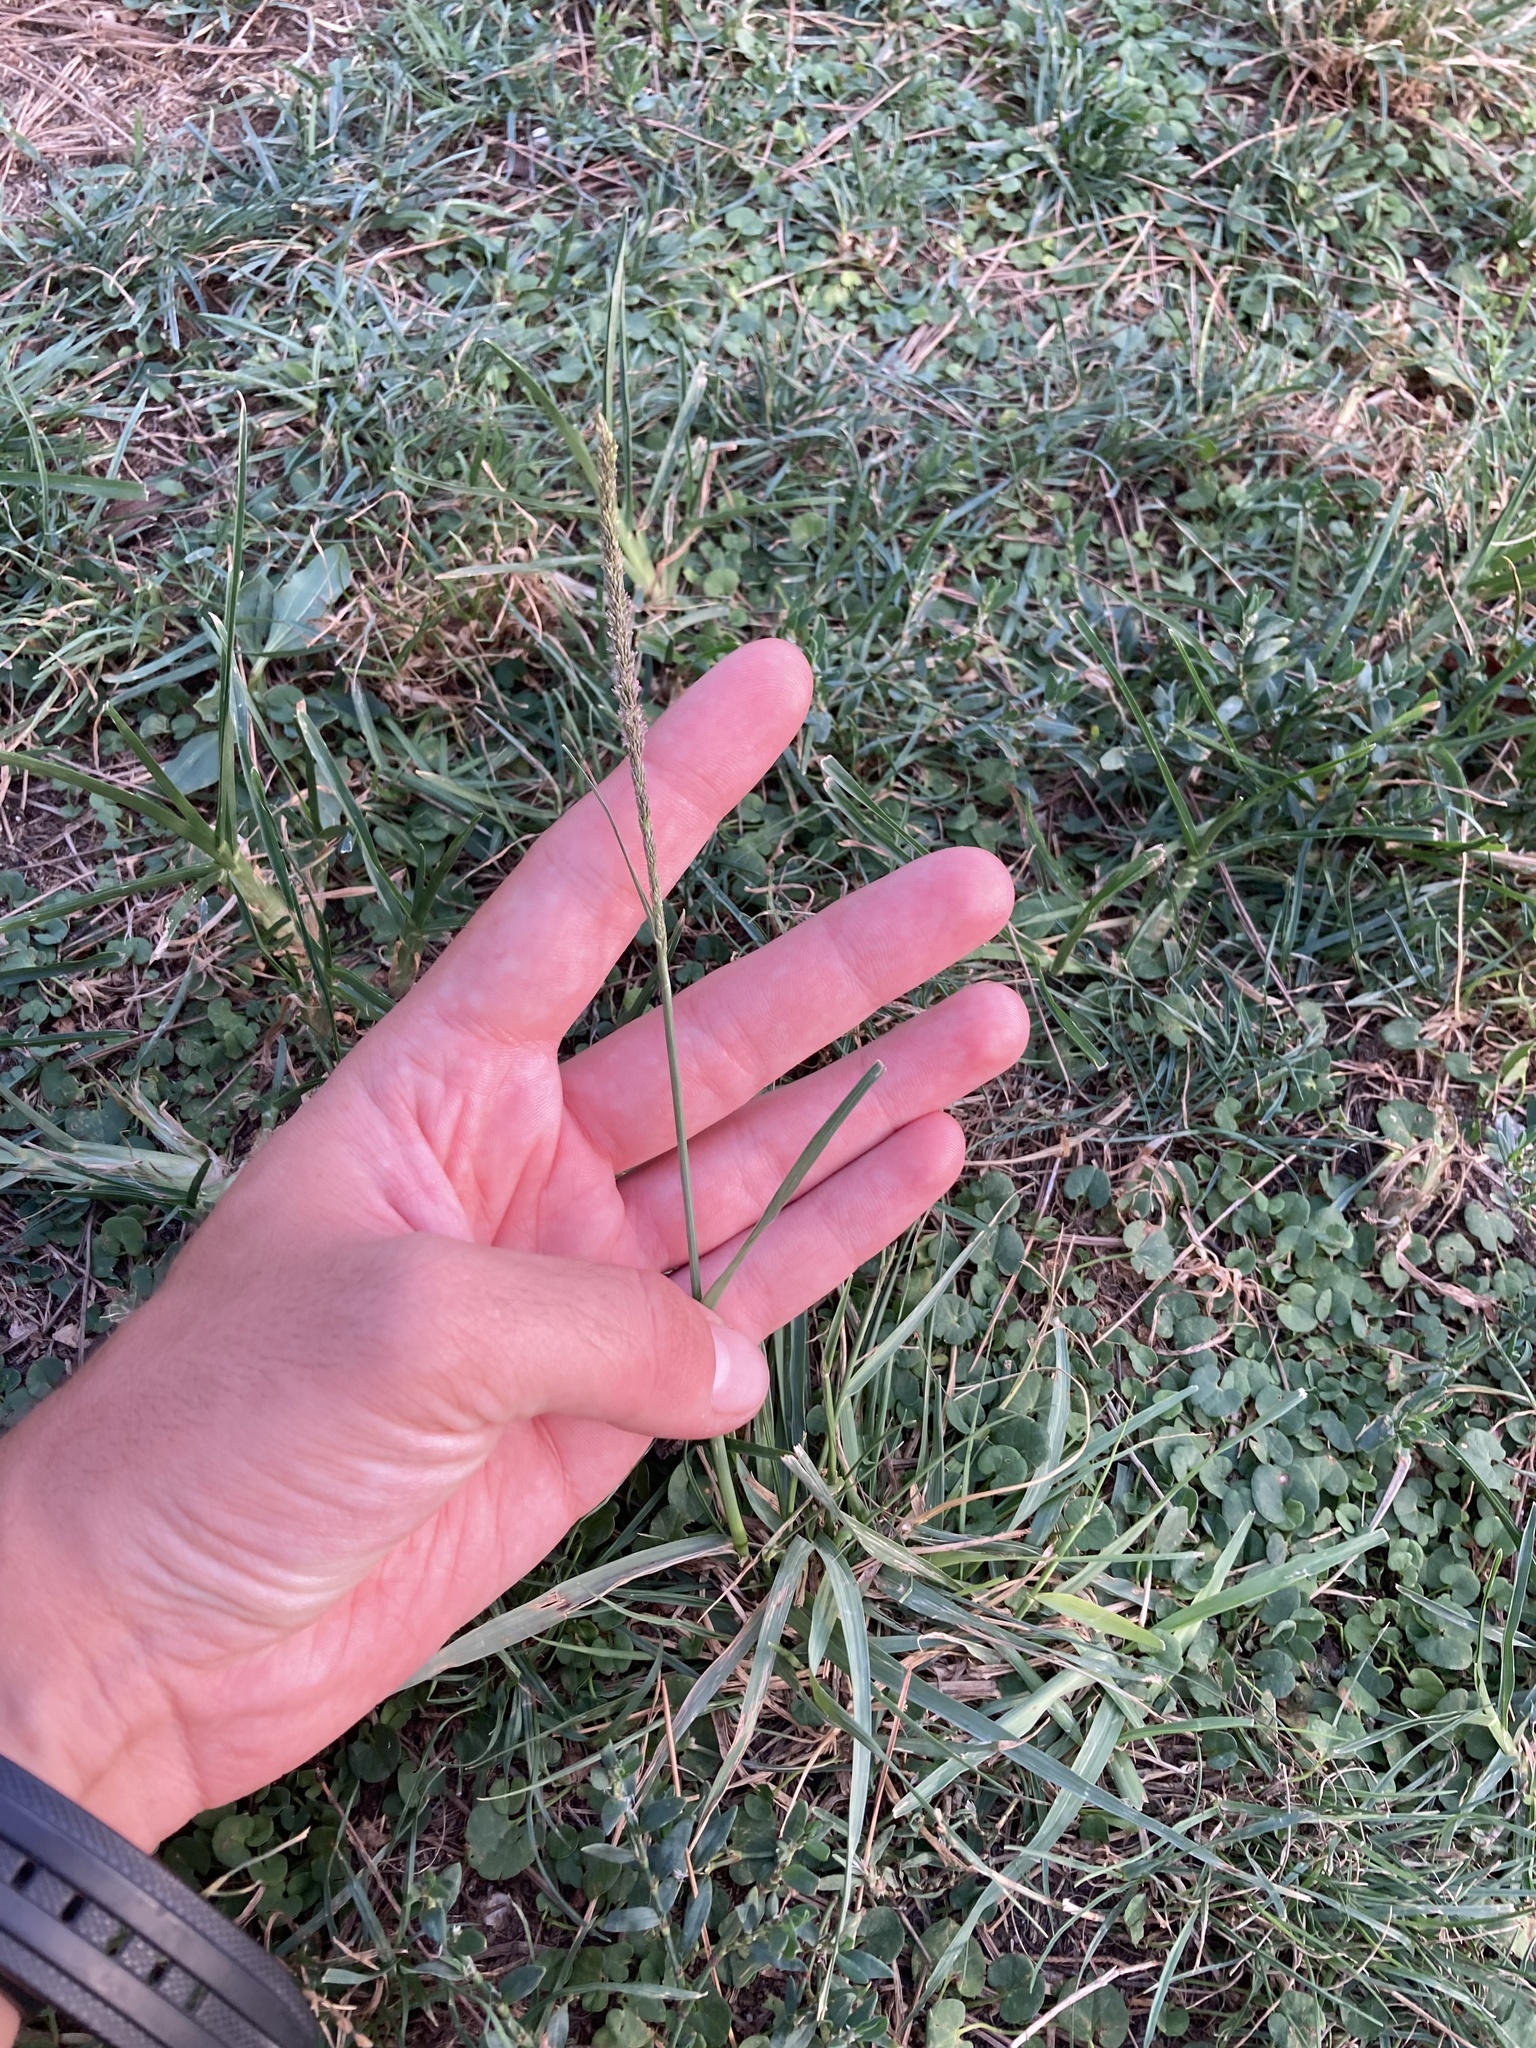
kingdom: Plantae
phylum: Tracheophyta
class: Liliopsida
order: Poales
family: Poaceae
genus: Sporobolus
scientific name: Sporobolus indicus
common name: Smut grass
